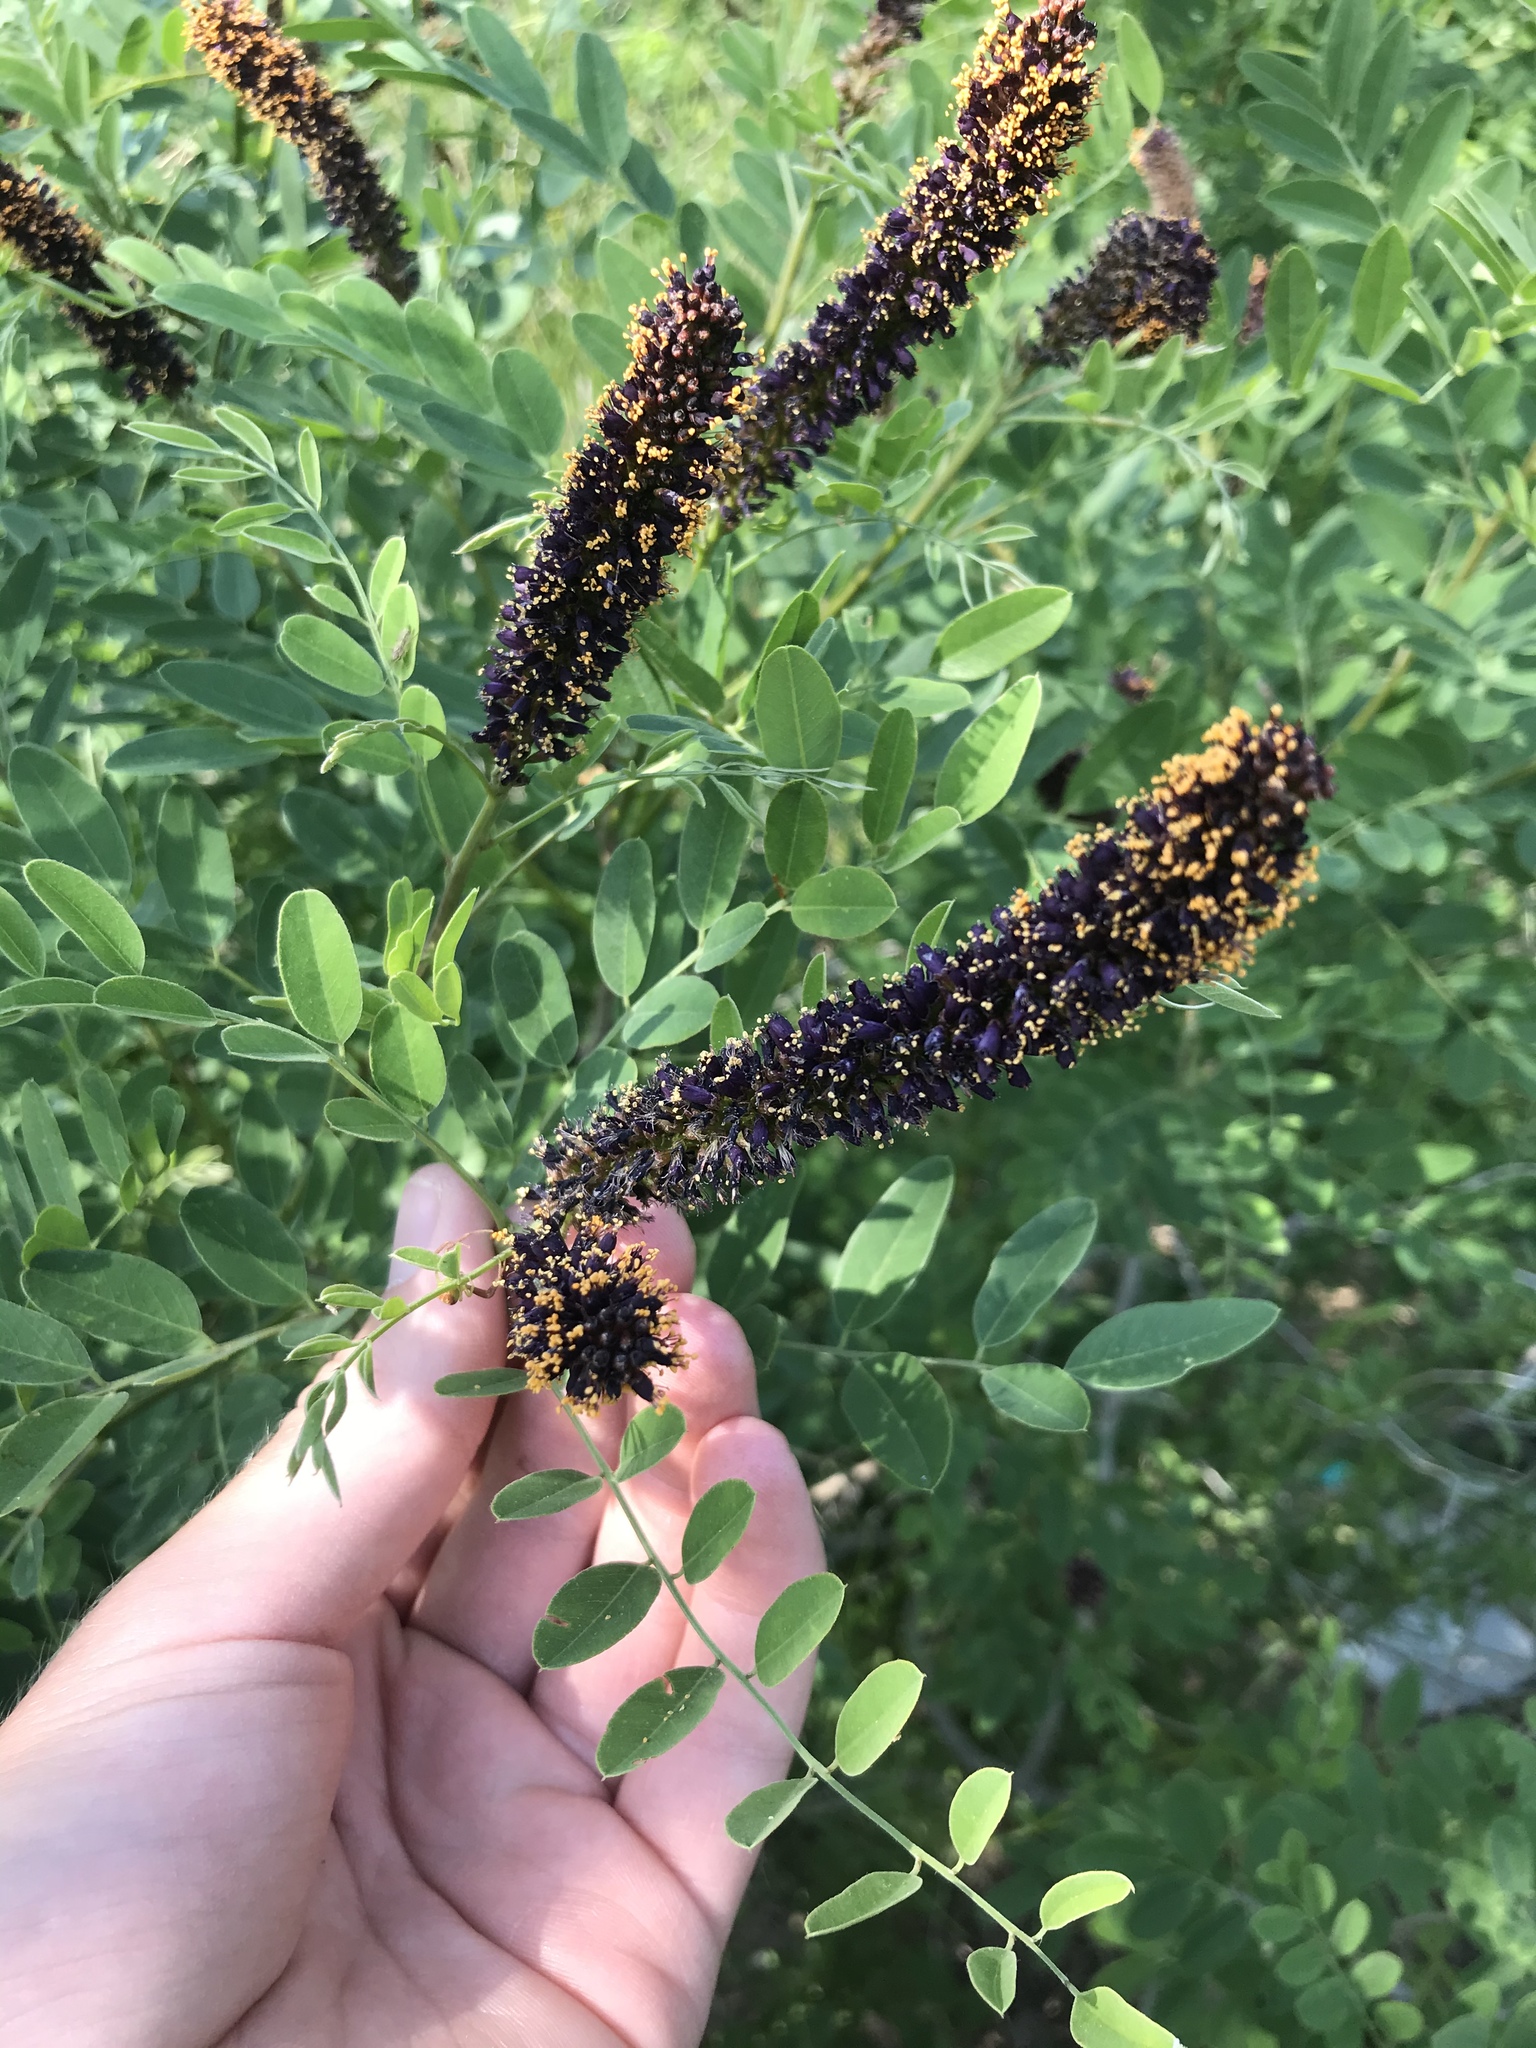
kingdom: Plantae
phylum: Tracheophyta
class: Magnoliopsida
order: Fabales
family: Fabaceae
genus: Amorpha
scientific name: Amorpha fruticosa
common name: False indigo
